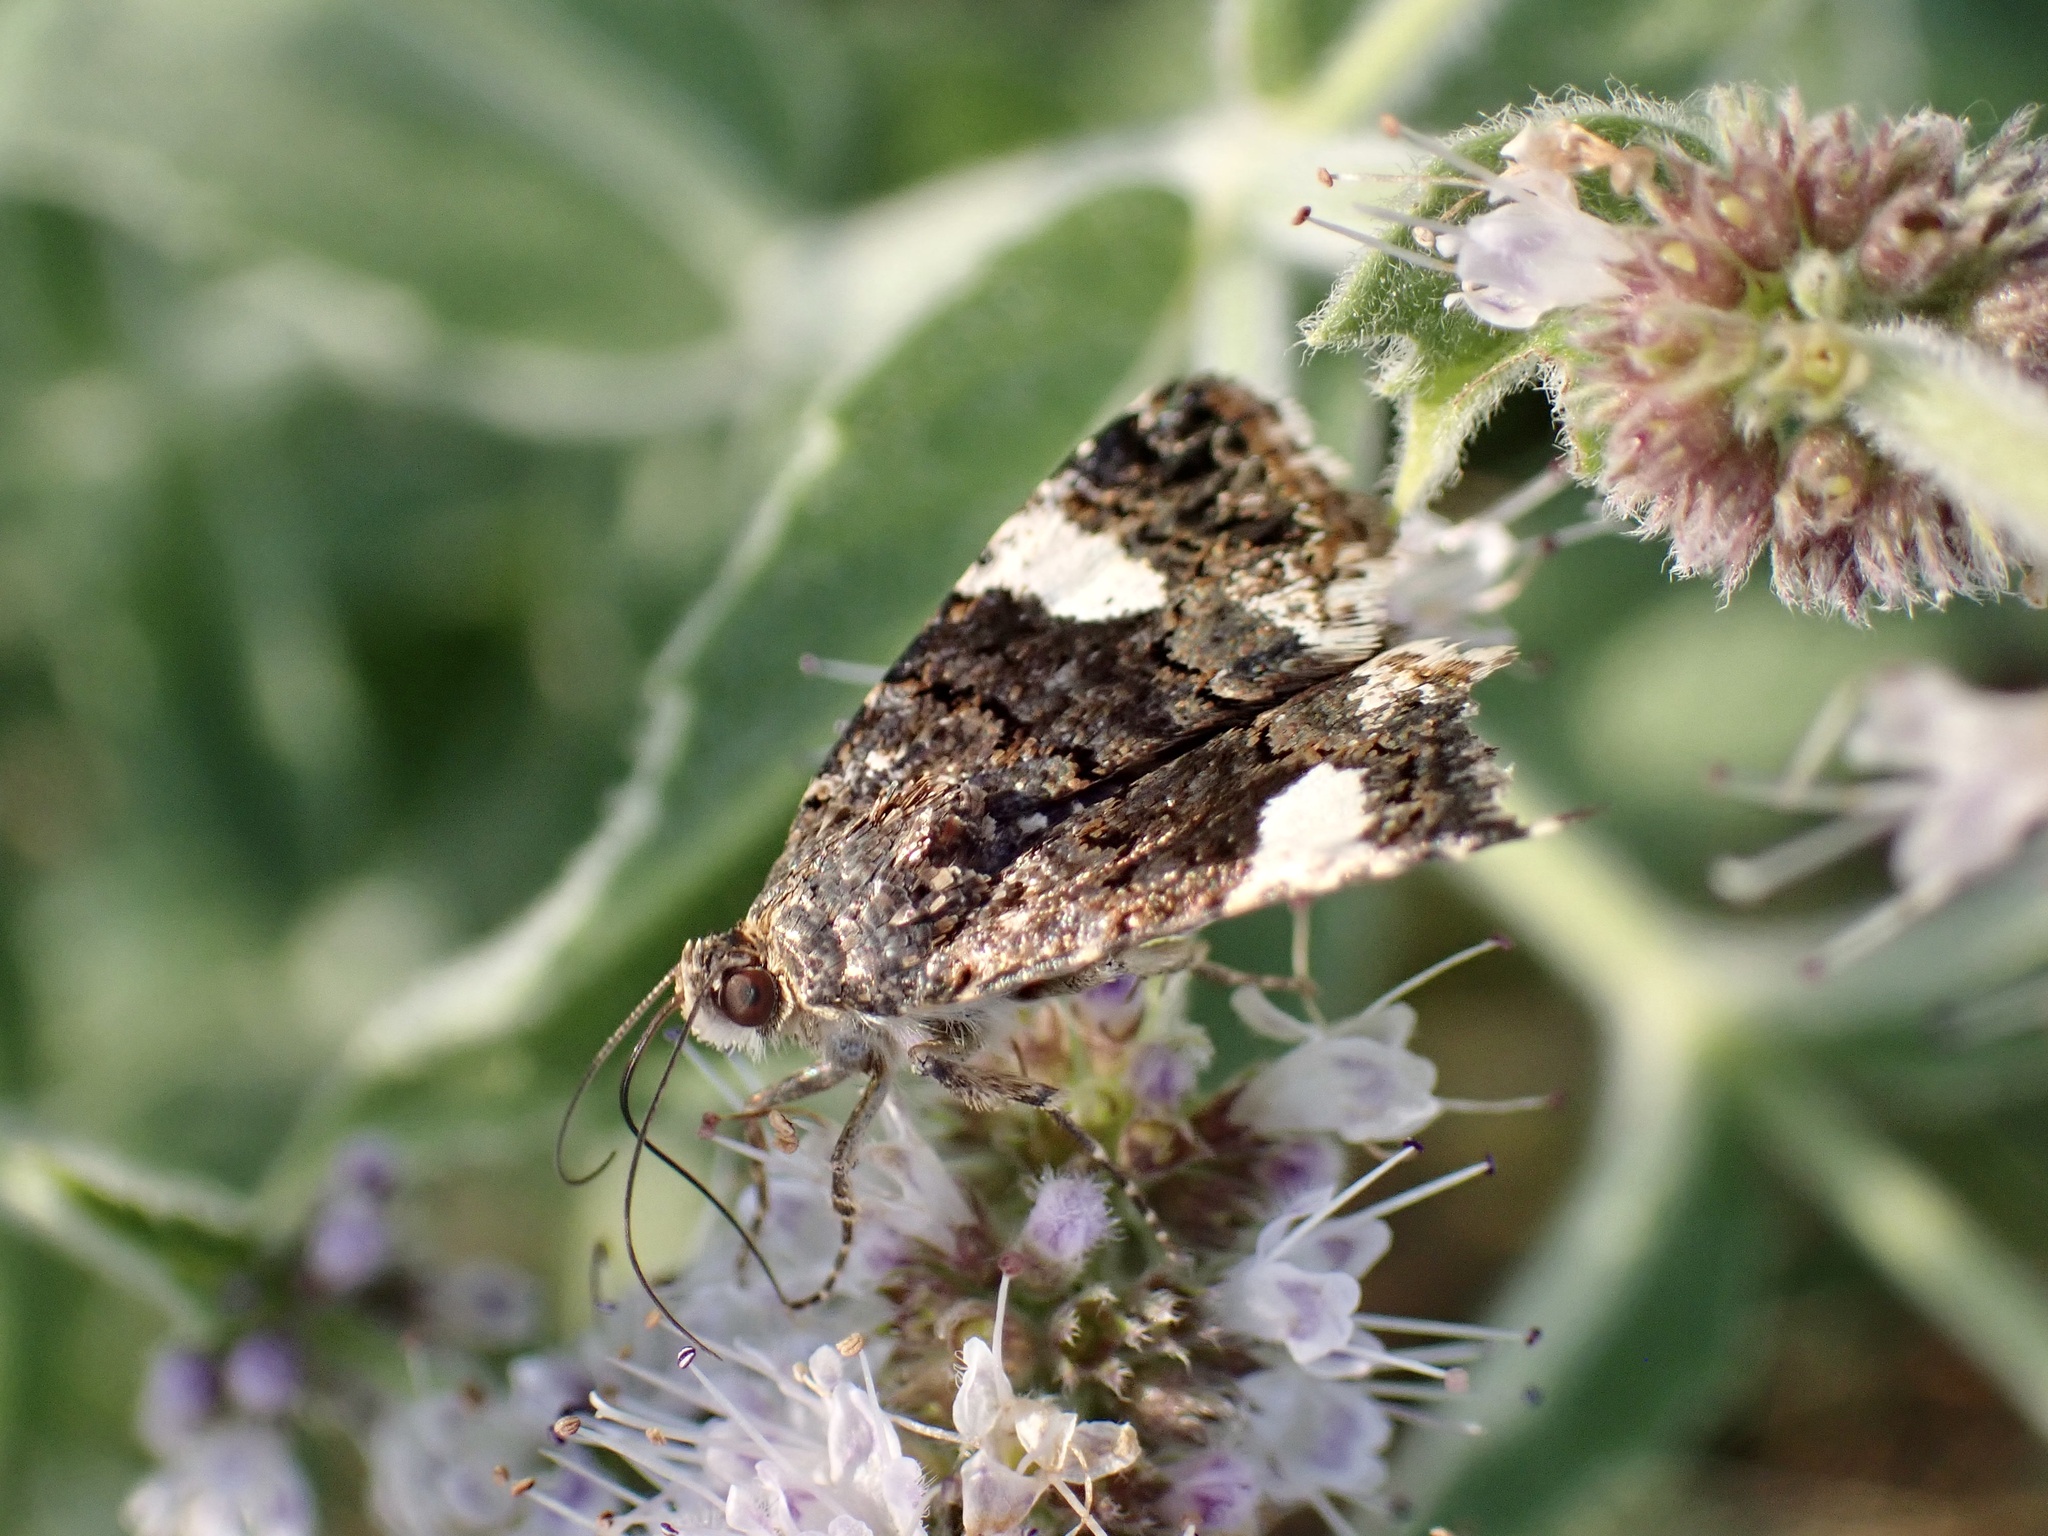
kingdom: Animalia
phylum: Arthropoda
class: Insecta
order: Lepidoptera
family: Erebidae
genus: Tyta
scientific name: Tyta luctuosa
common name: Four-spotted
